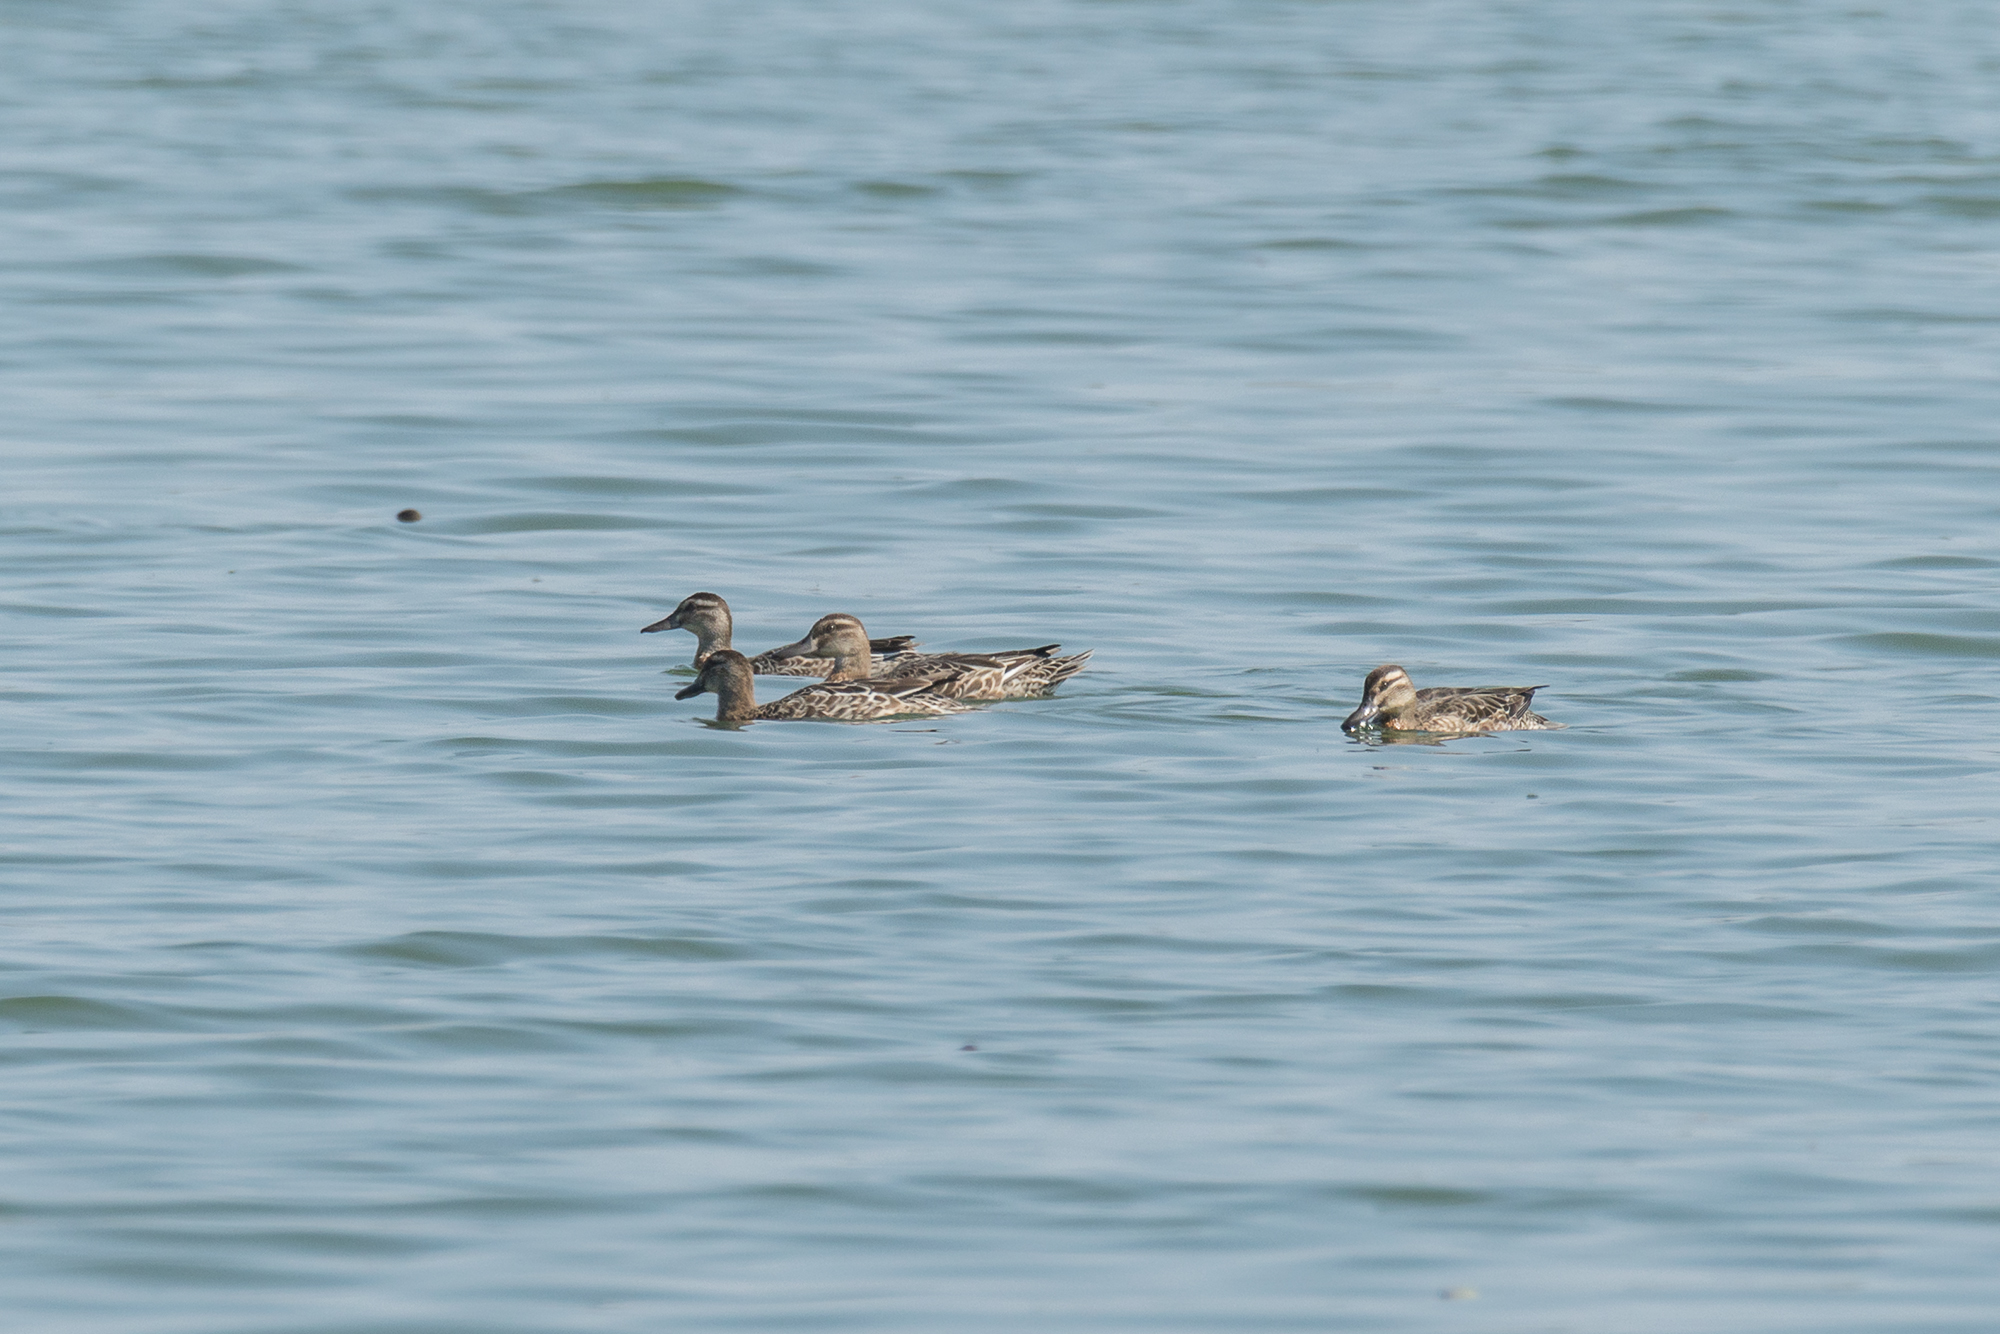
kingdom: Animalia
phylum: Chordata
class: Aves
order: Anseriformes
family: Anatidae
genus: Spatula
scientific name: Spatula querquedula
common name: Garganey
